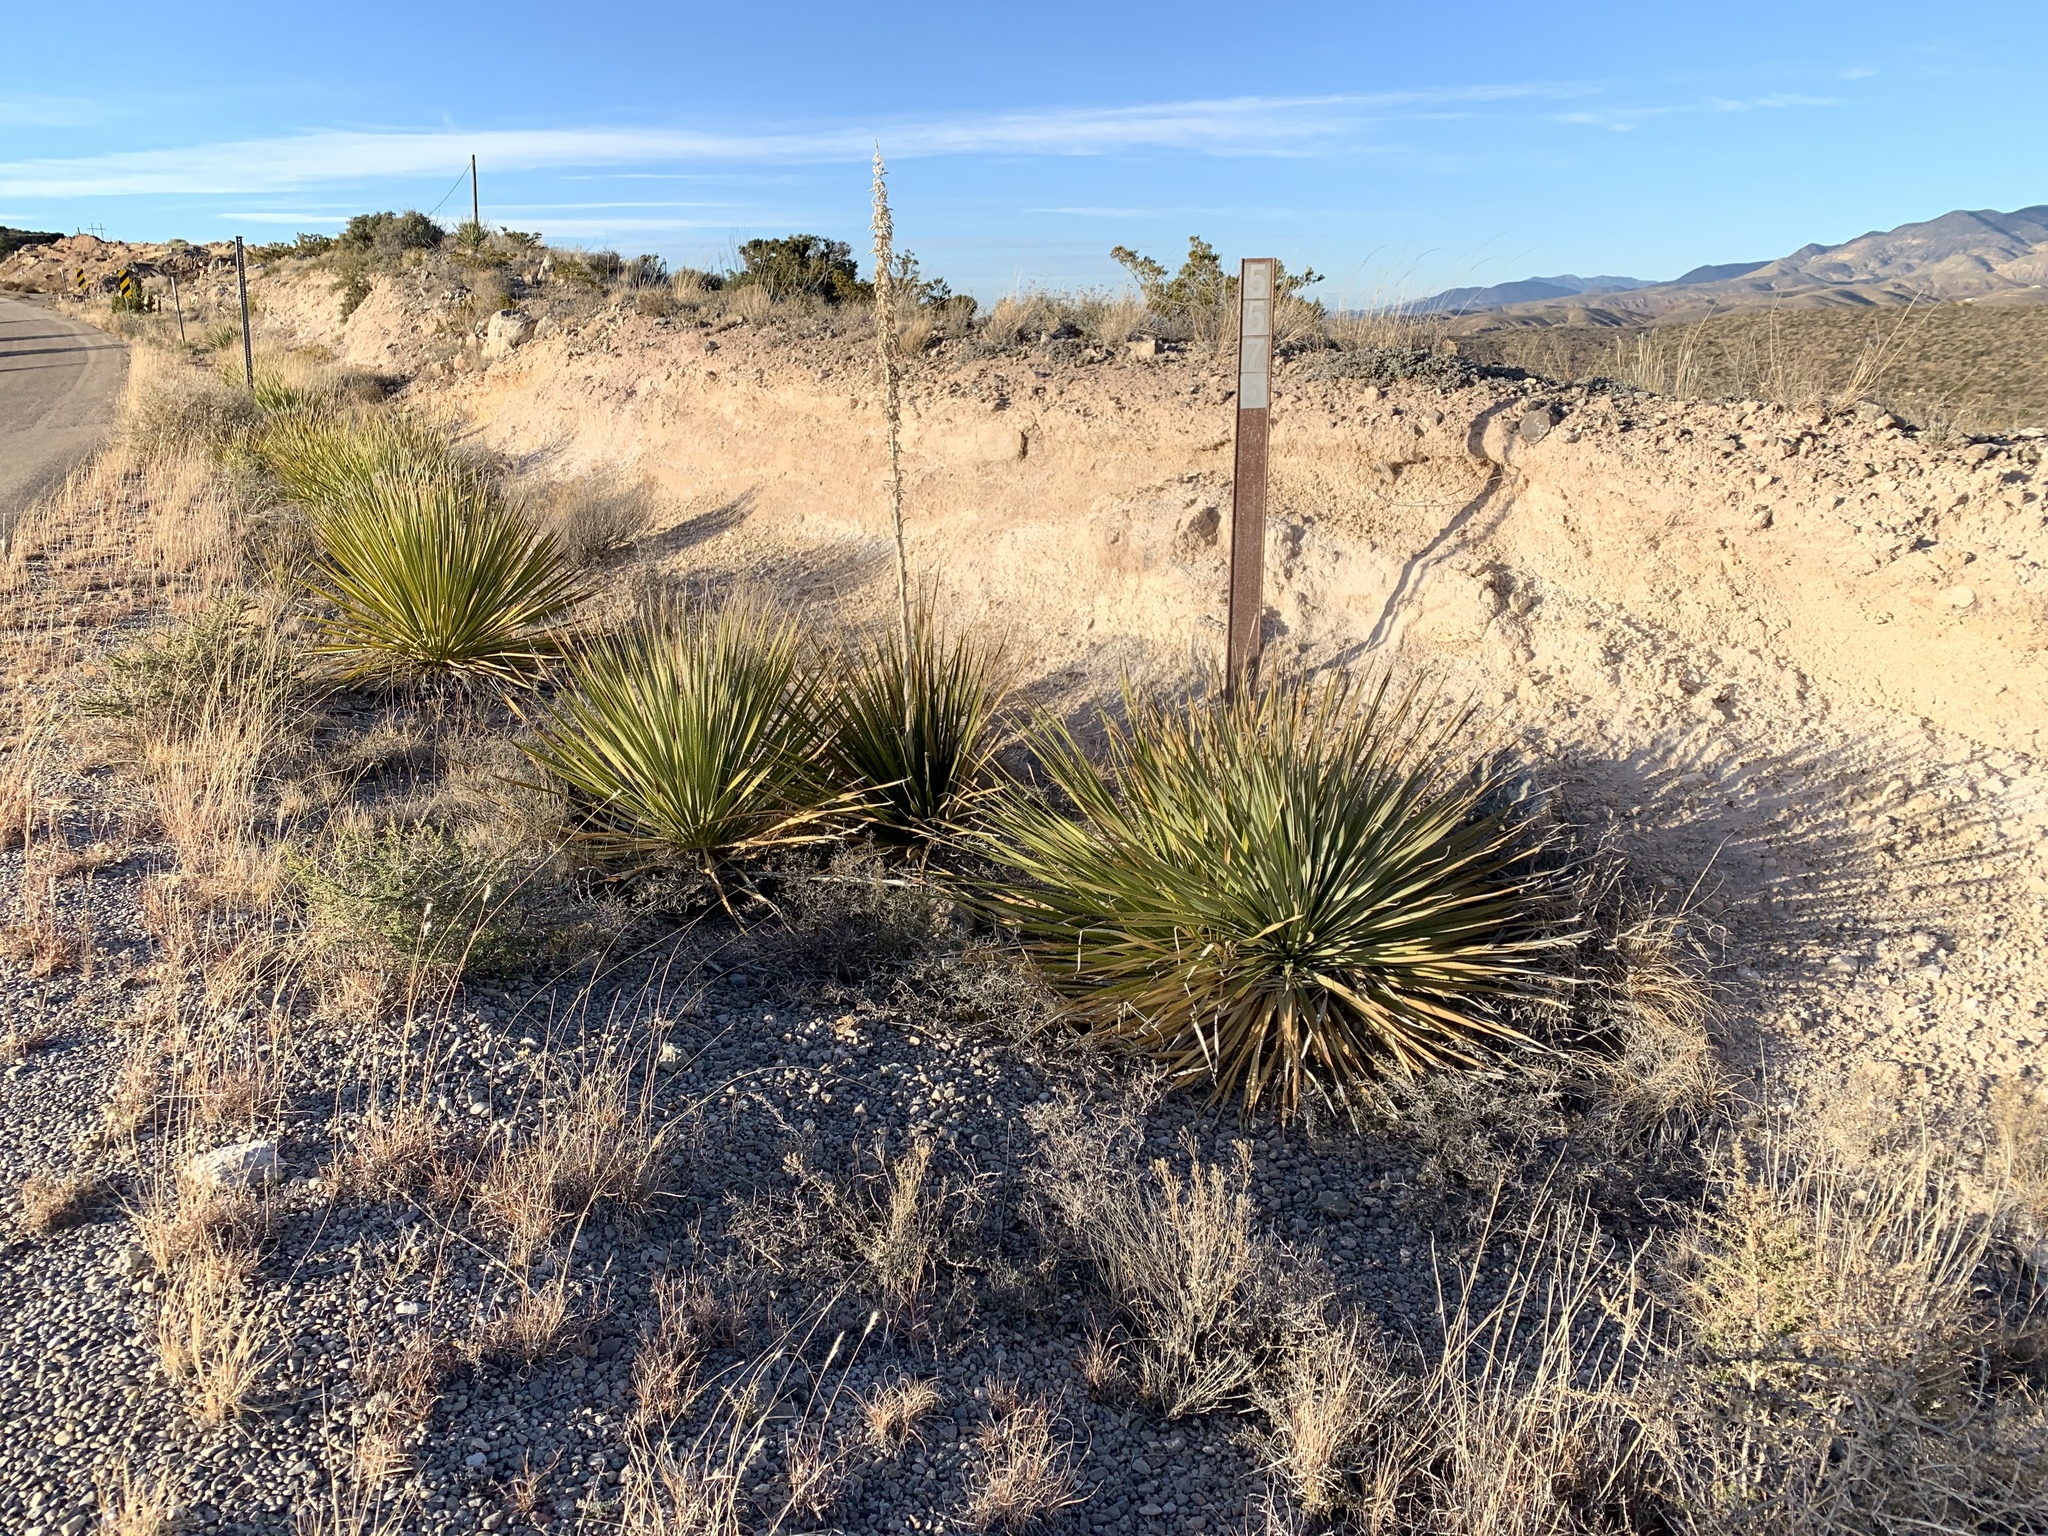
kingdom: Plantae
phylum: Tracheophyta
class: Liliopsida
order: Asparagales
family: Asparagaceae
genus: Dasylirion
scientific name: Dasylirion wheeleri
